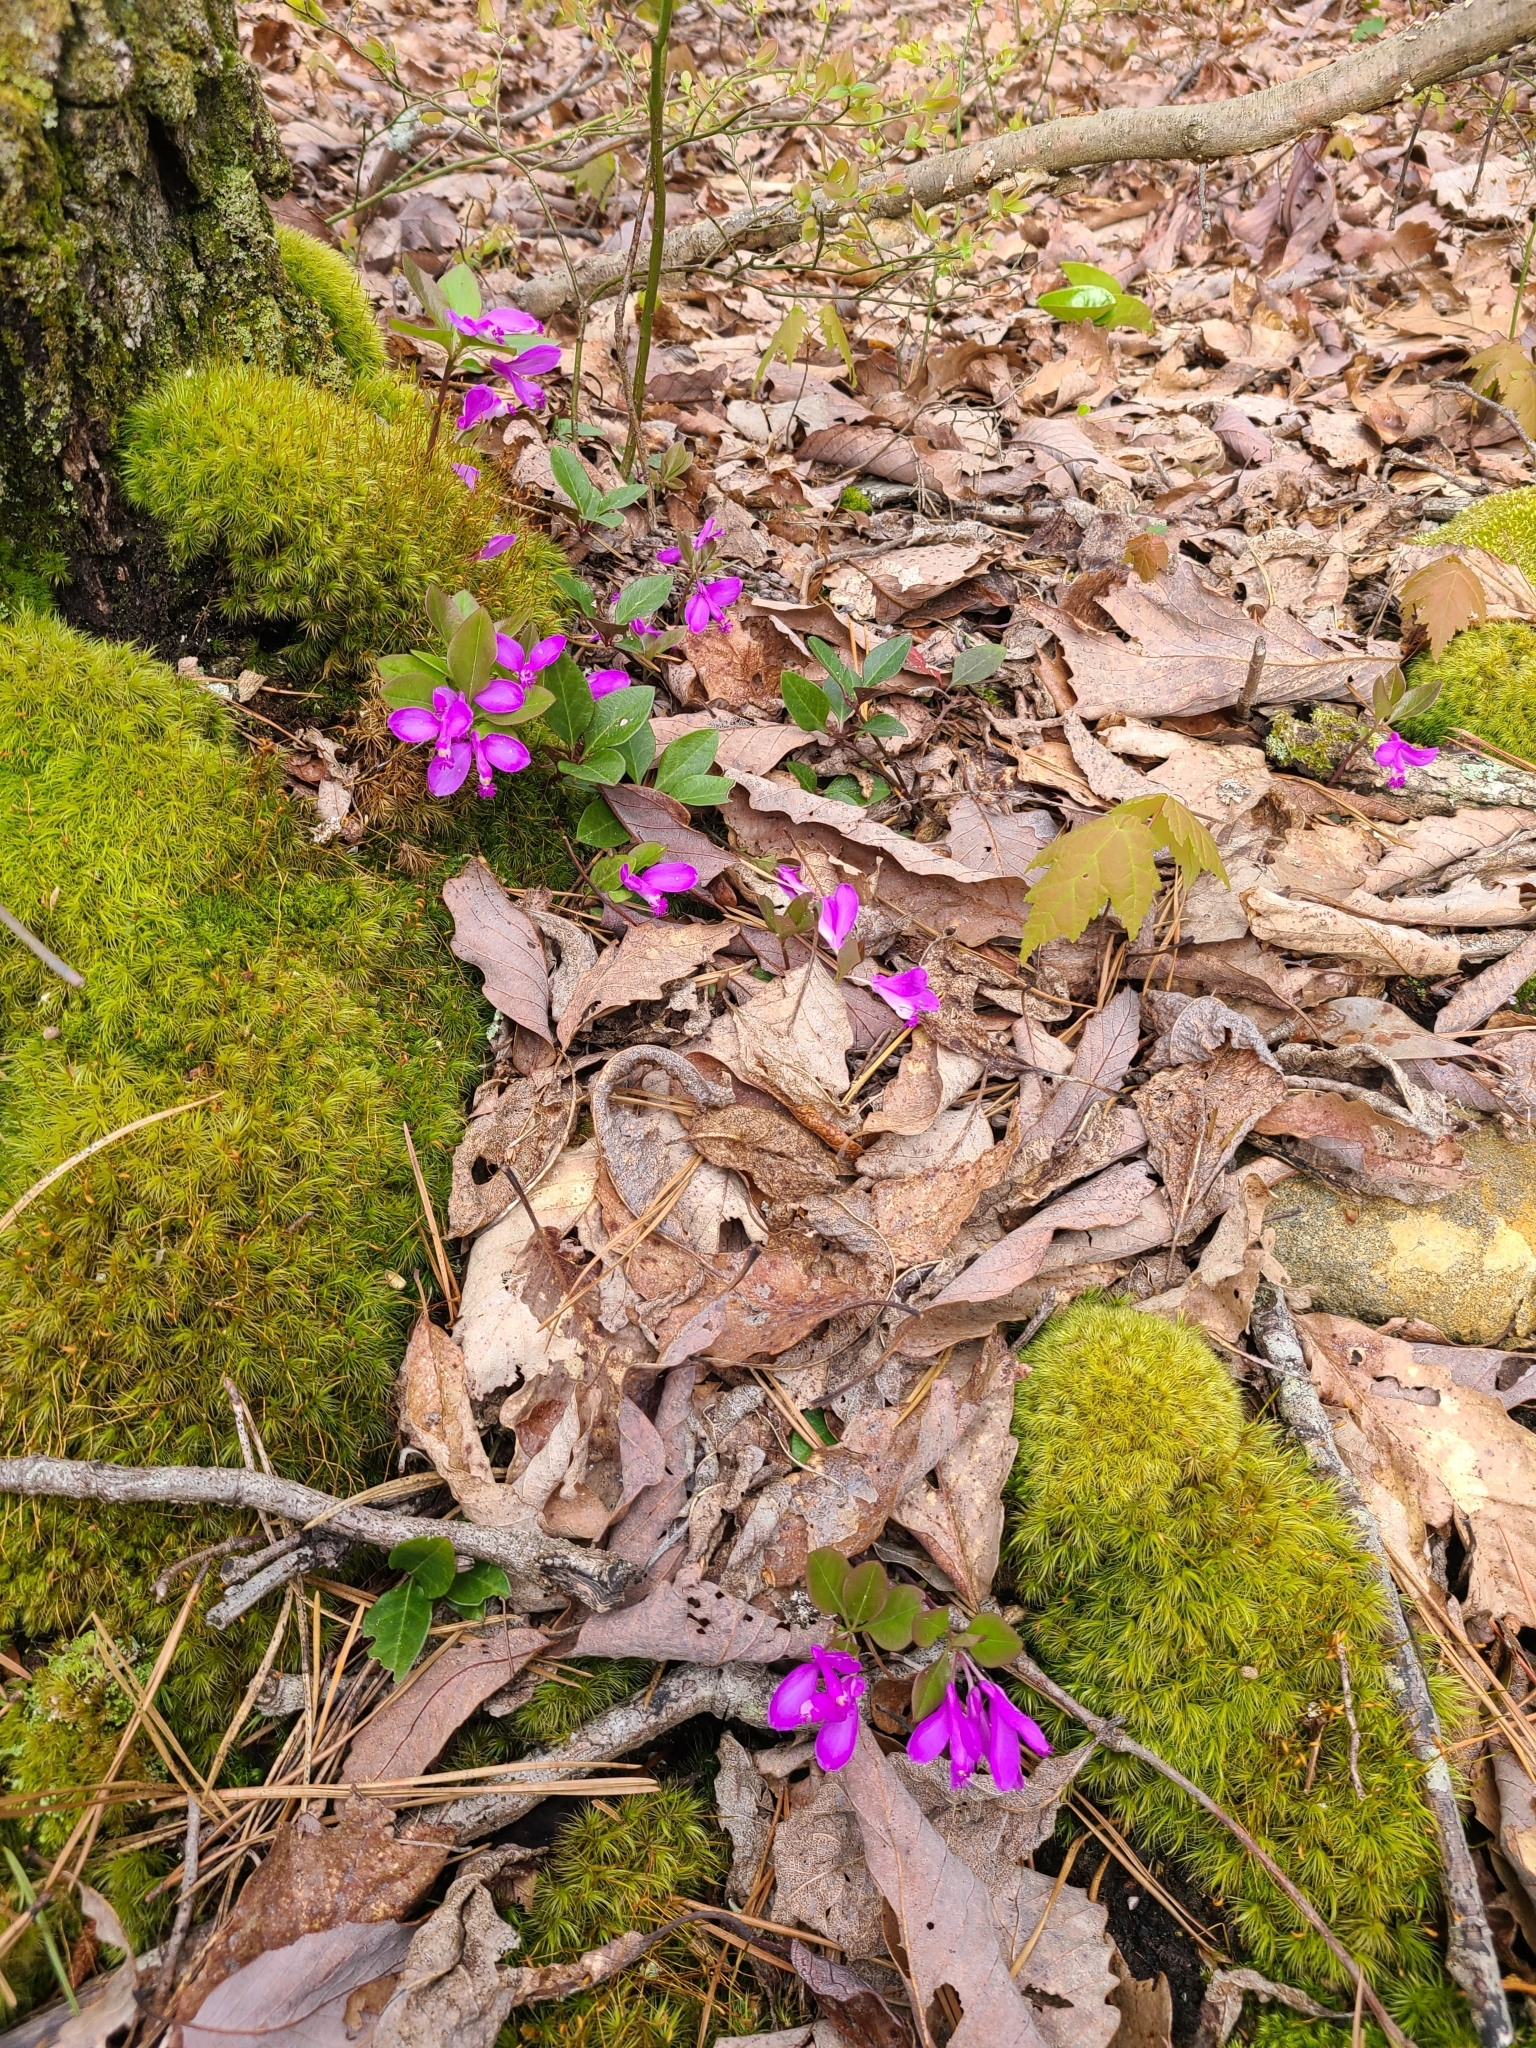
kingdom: Plantae
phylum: Tracheophyta
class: Magnoliopsida
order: Fabales
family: Polygalaceae
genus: Polygaloides
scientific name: Polygaloides paucifolia
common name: Bird-on-the-wing
